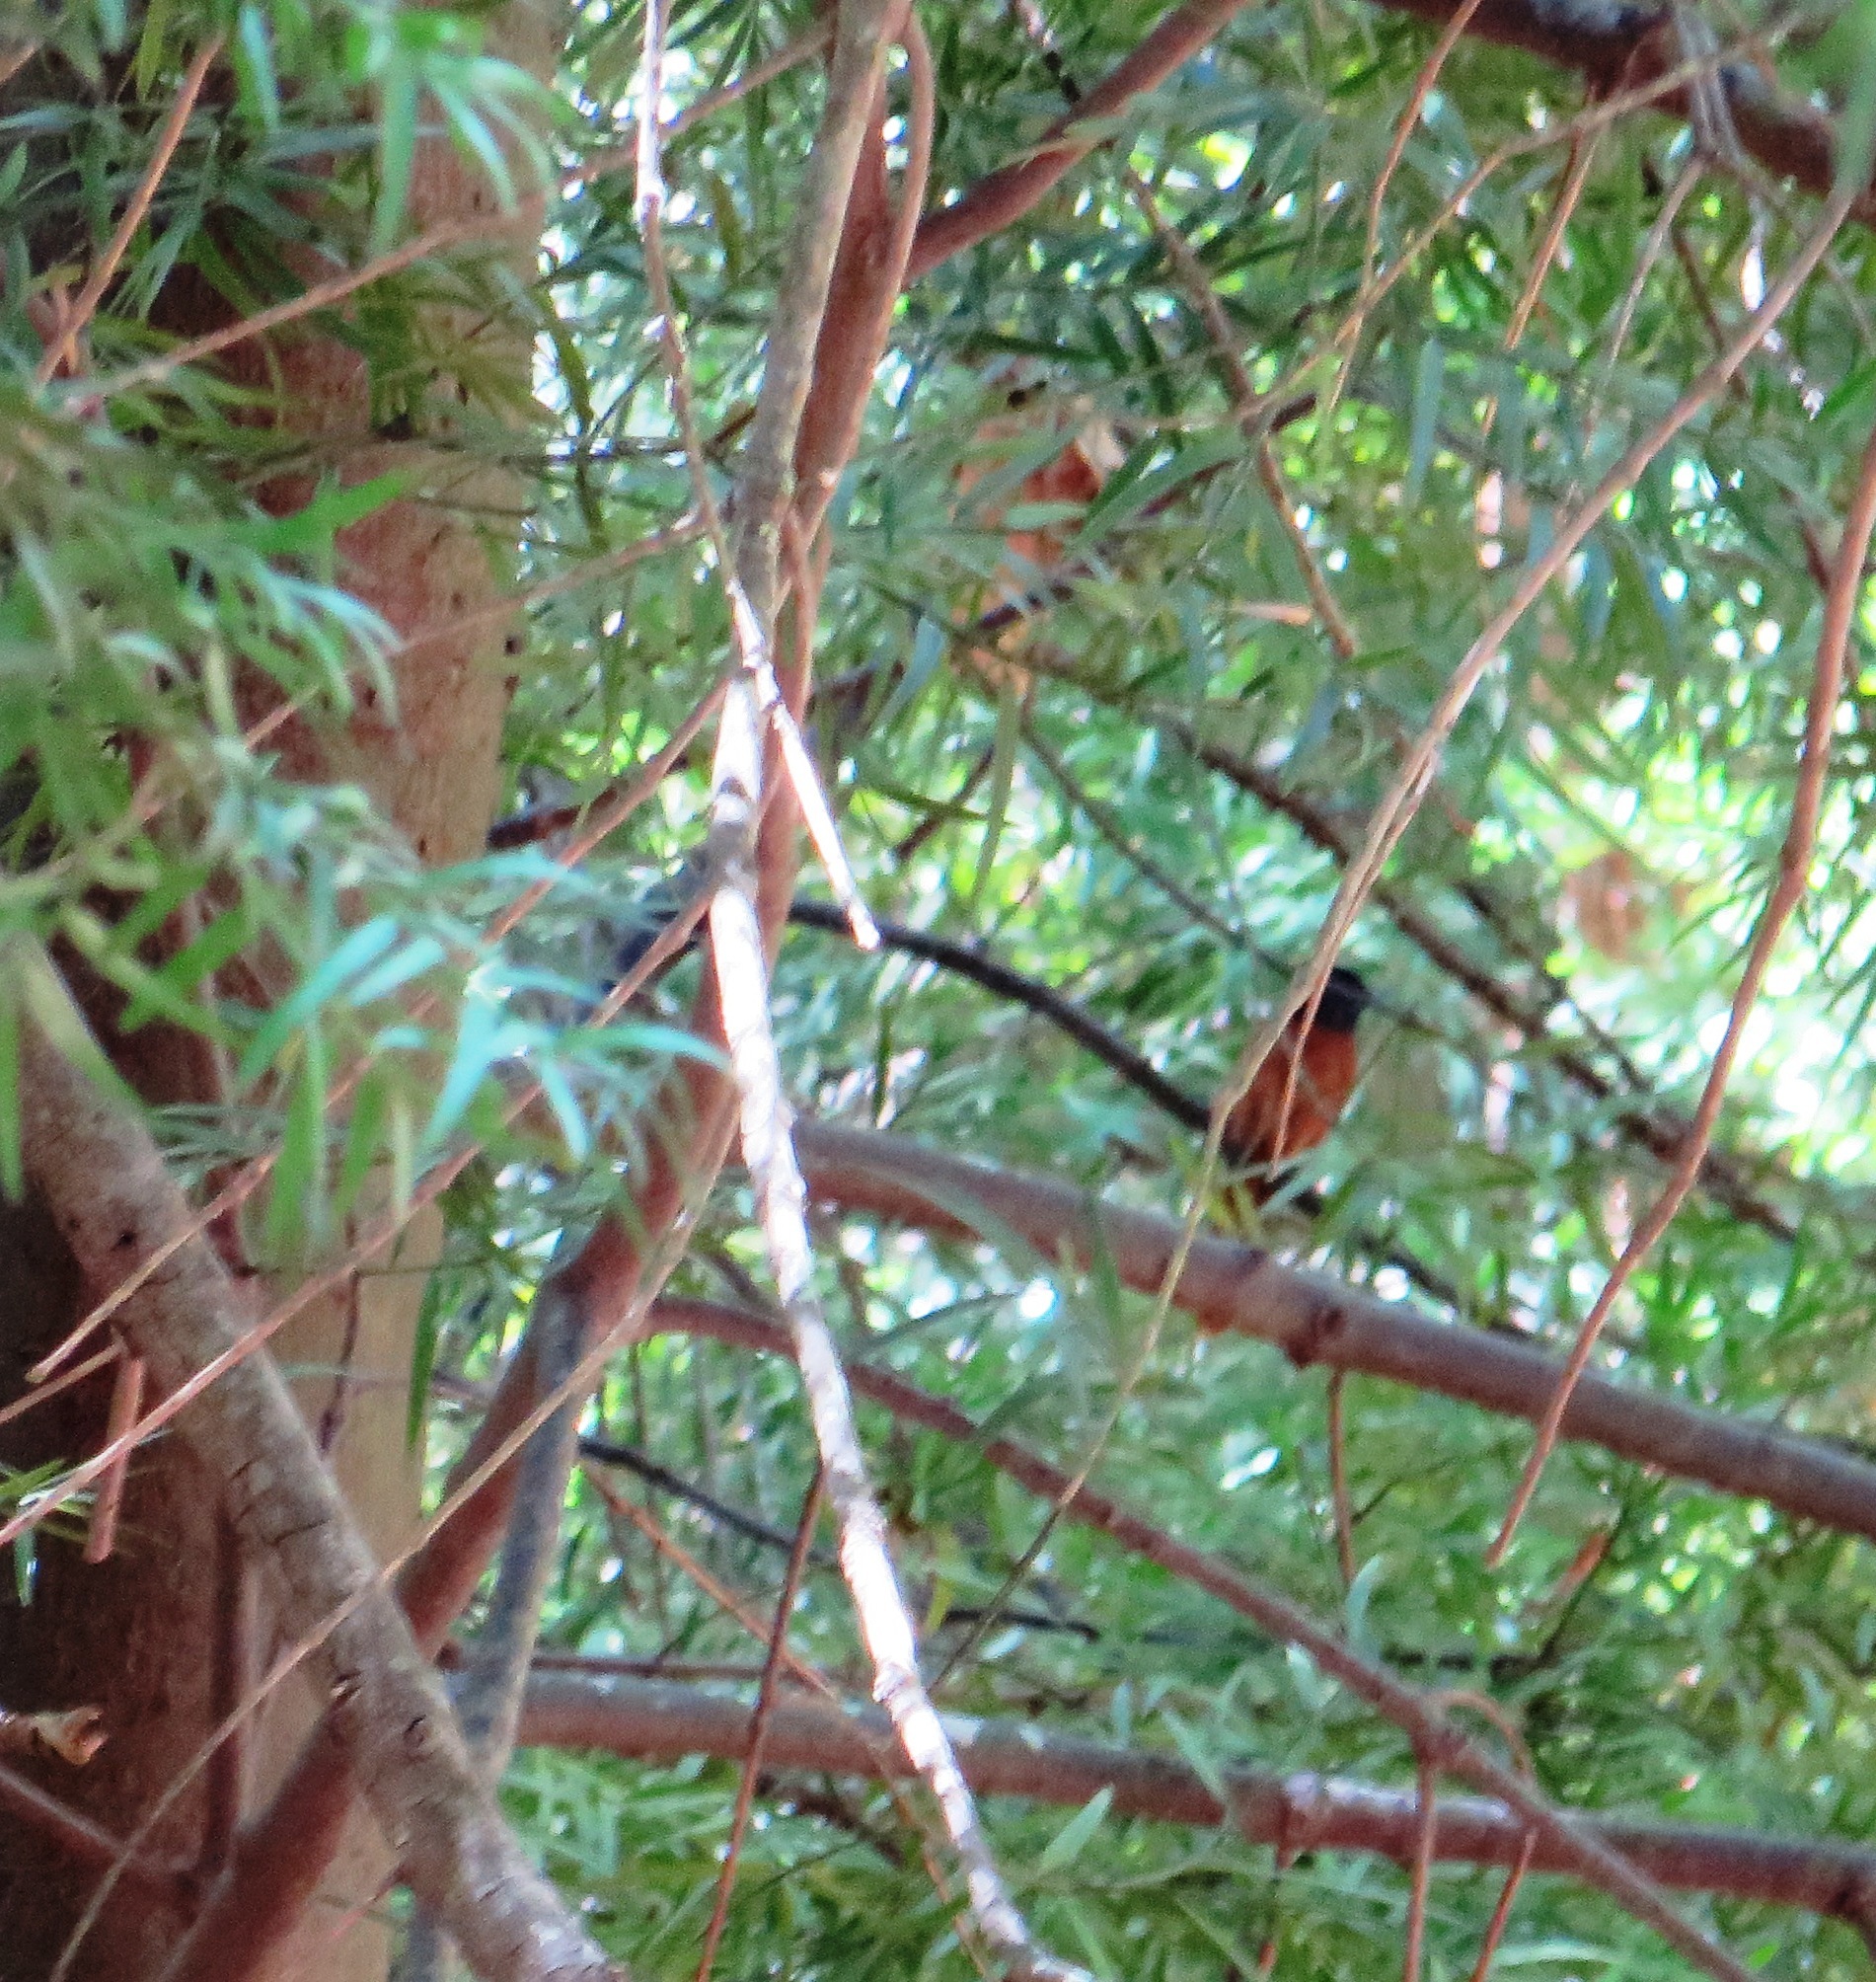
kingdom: Animalia
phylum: Chordata
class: Aves
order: Passeriformes
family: Monarchidae
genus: Terpsiphone
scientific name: Terpsiphone viridis
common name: African paradise flycatcher
